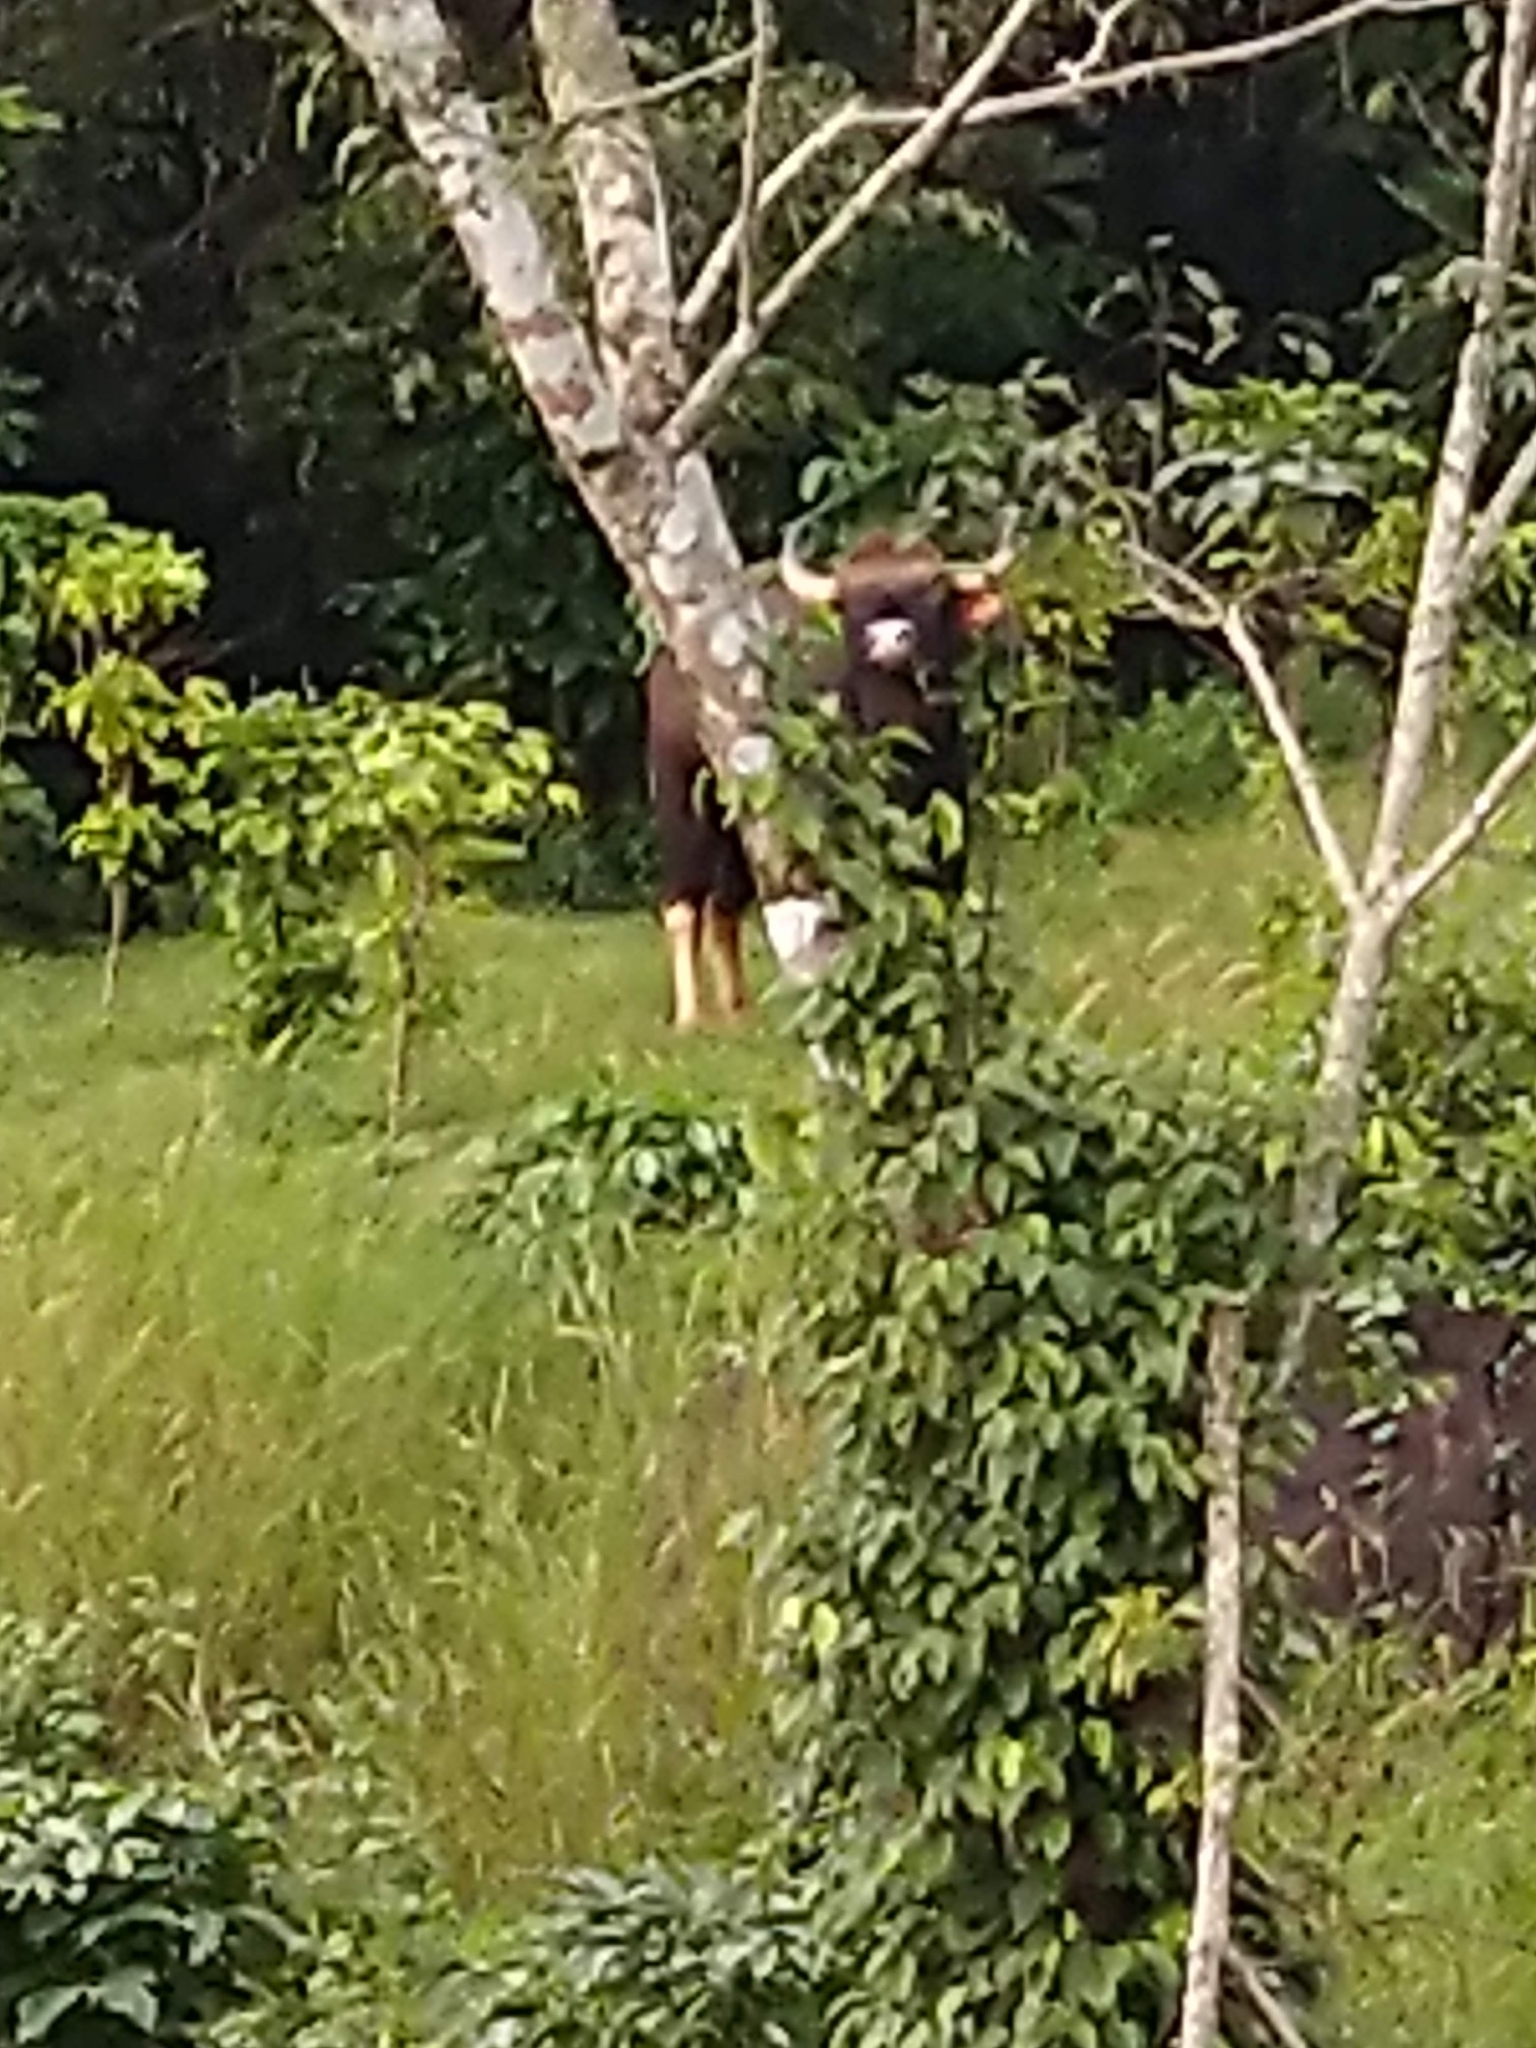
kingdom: Animalia
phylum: Chordata
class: Mammalia
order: Artiodactyla
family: Bovidae
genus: Bos
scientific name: Bos frontalis
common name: Gaur
